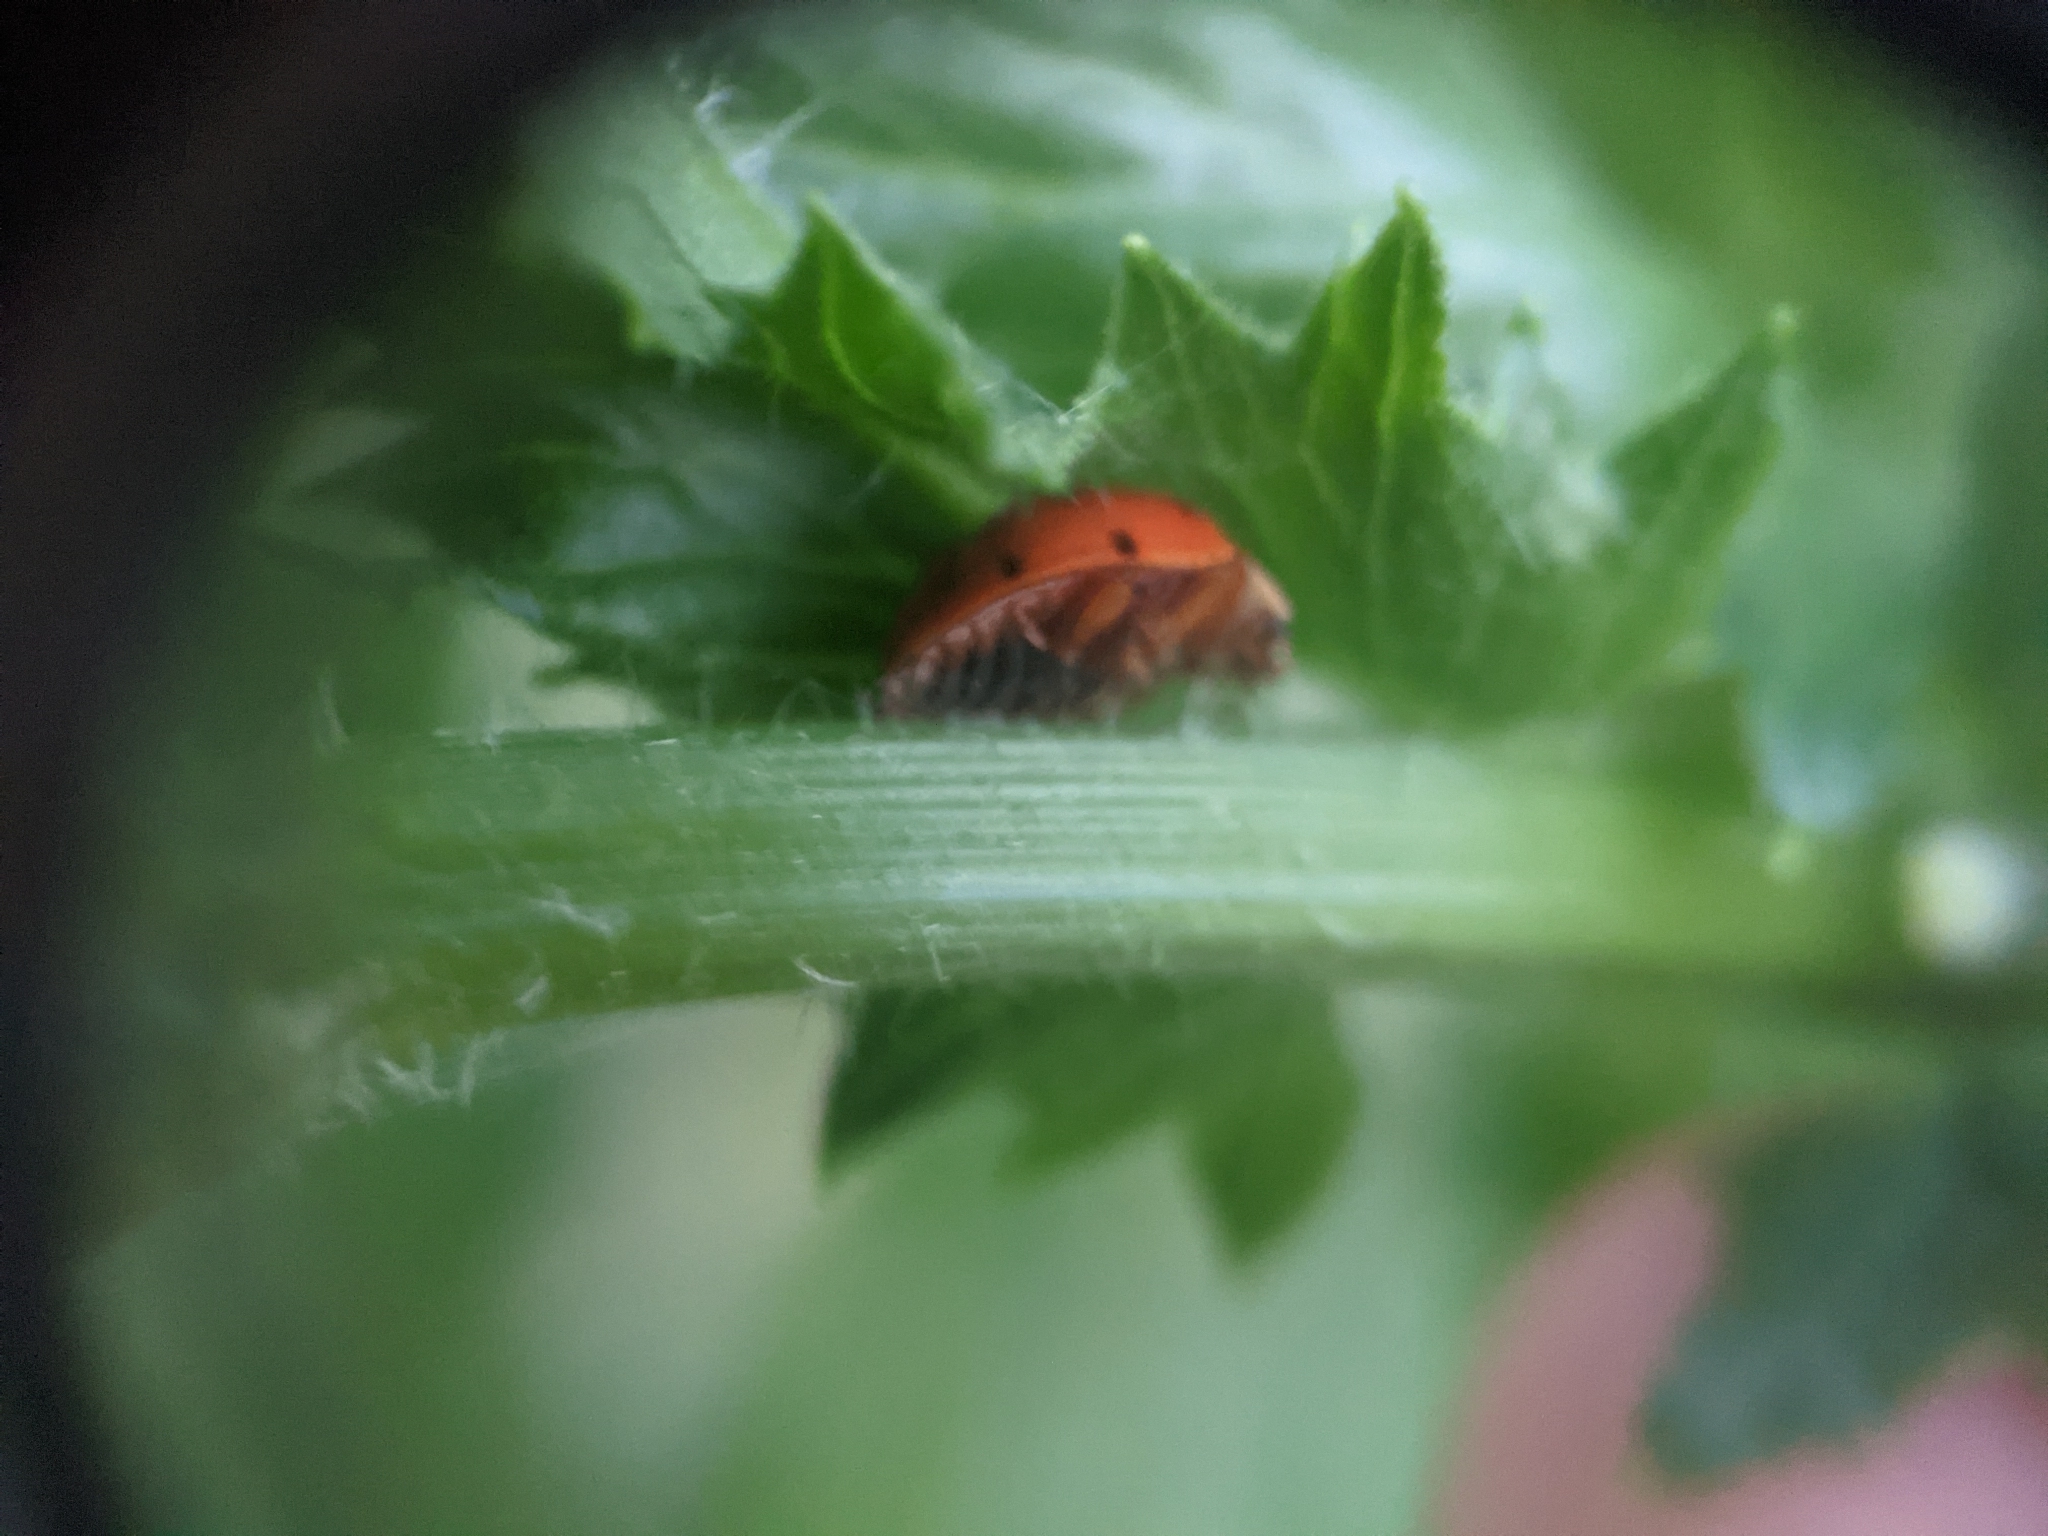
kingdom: Animalia
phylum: Arthropoda
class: Insecta
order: Coleoptera
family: Coccinellidae
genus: Harmonia
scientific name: Harmonia axyridis
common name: Harlequin ladybird
